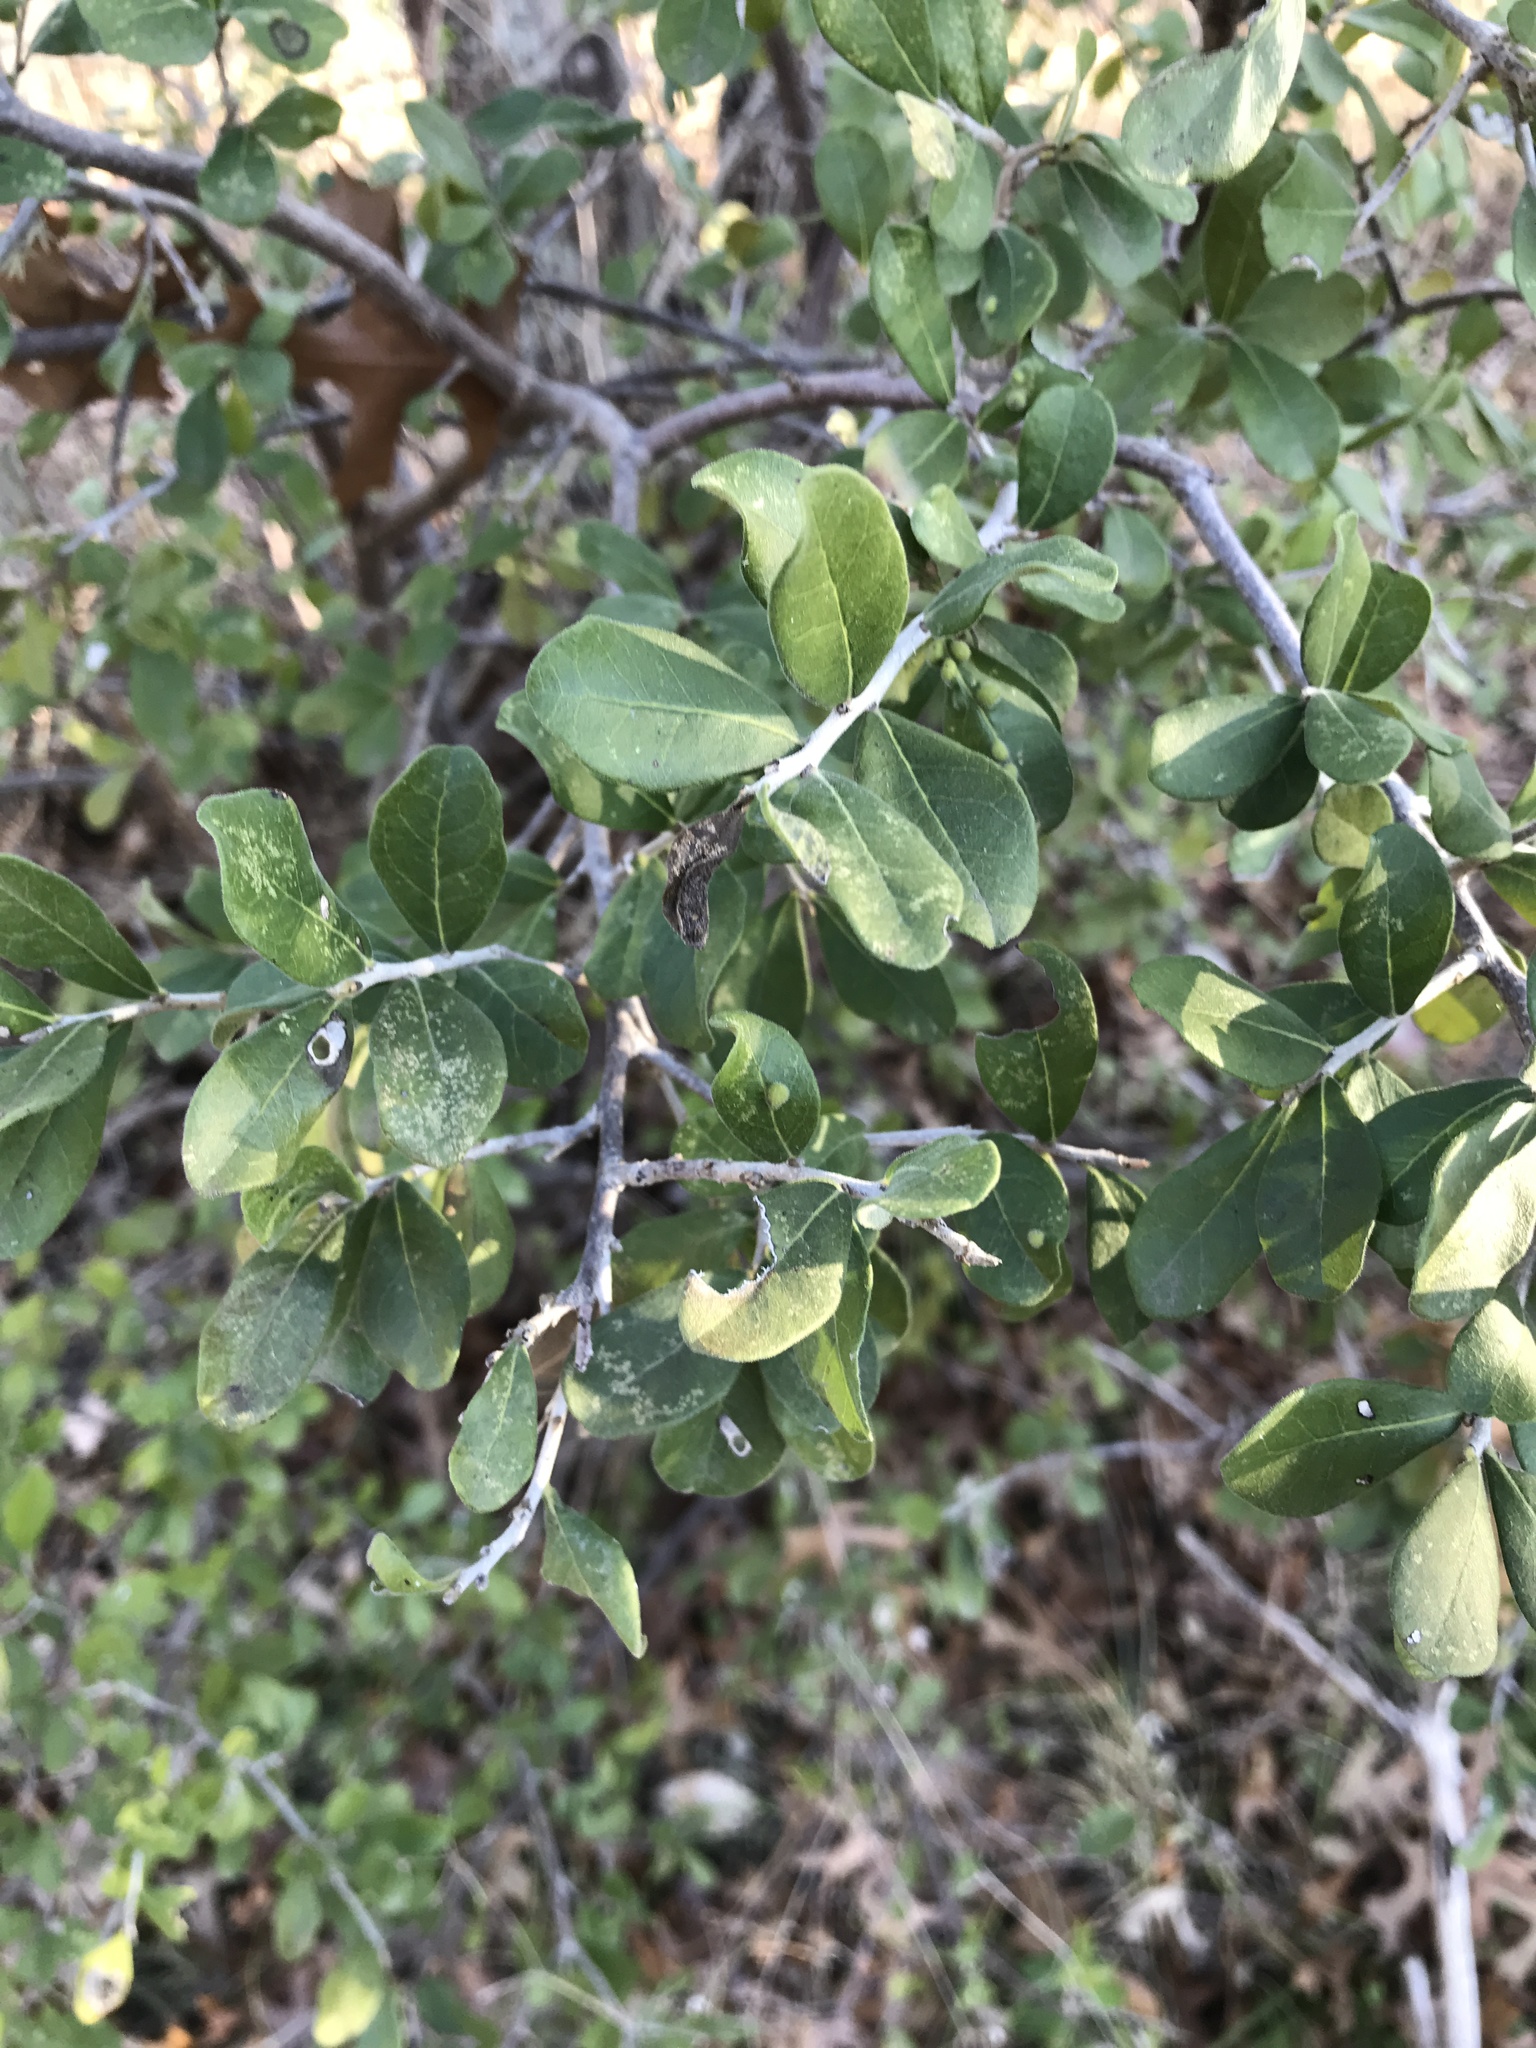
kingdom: Plantae
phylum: Tracheophyta
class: Magnoliopsida
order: Ericales
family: Ebenaceae
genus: Diospyros
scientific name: Diospyros texana
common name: Texas persimmon
